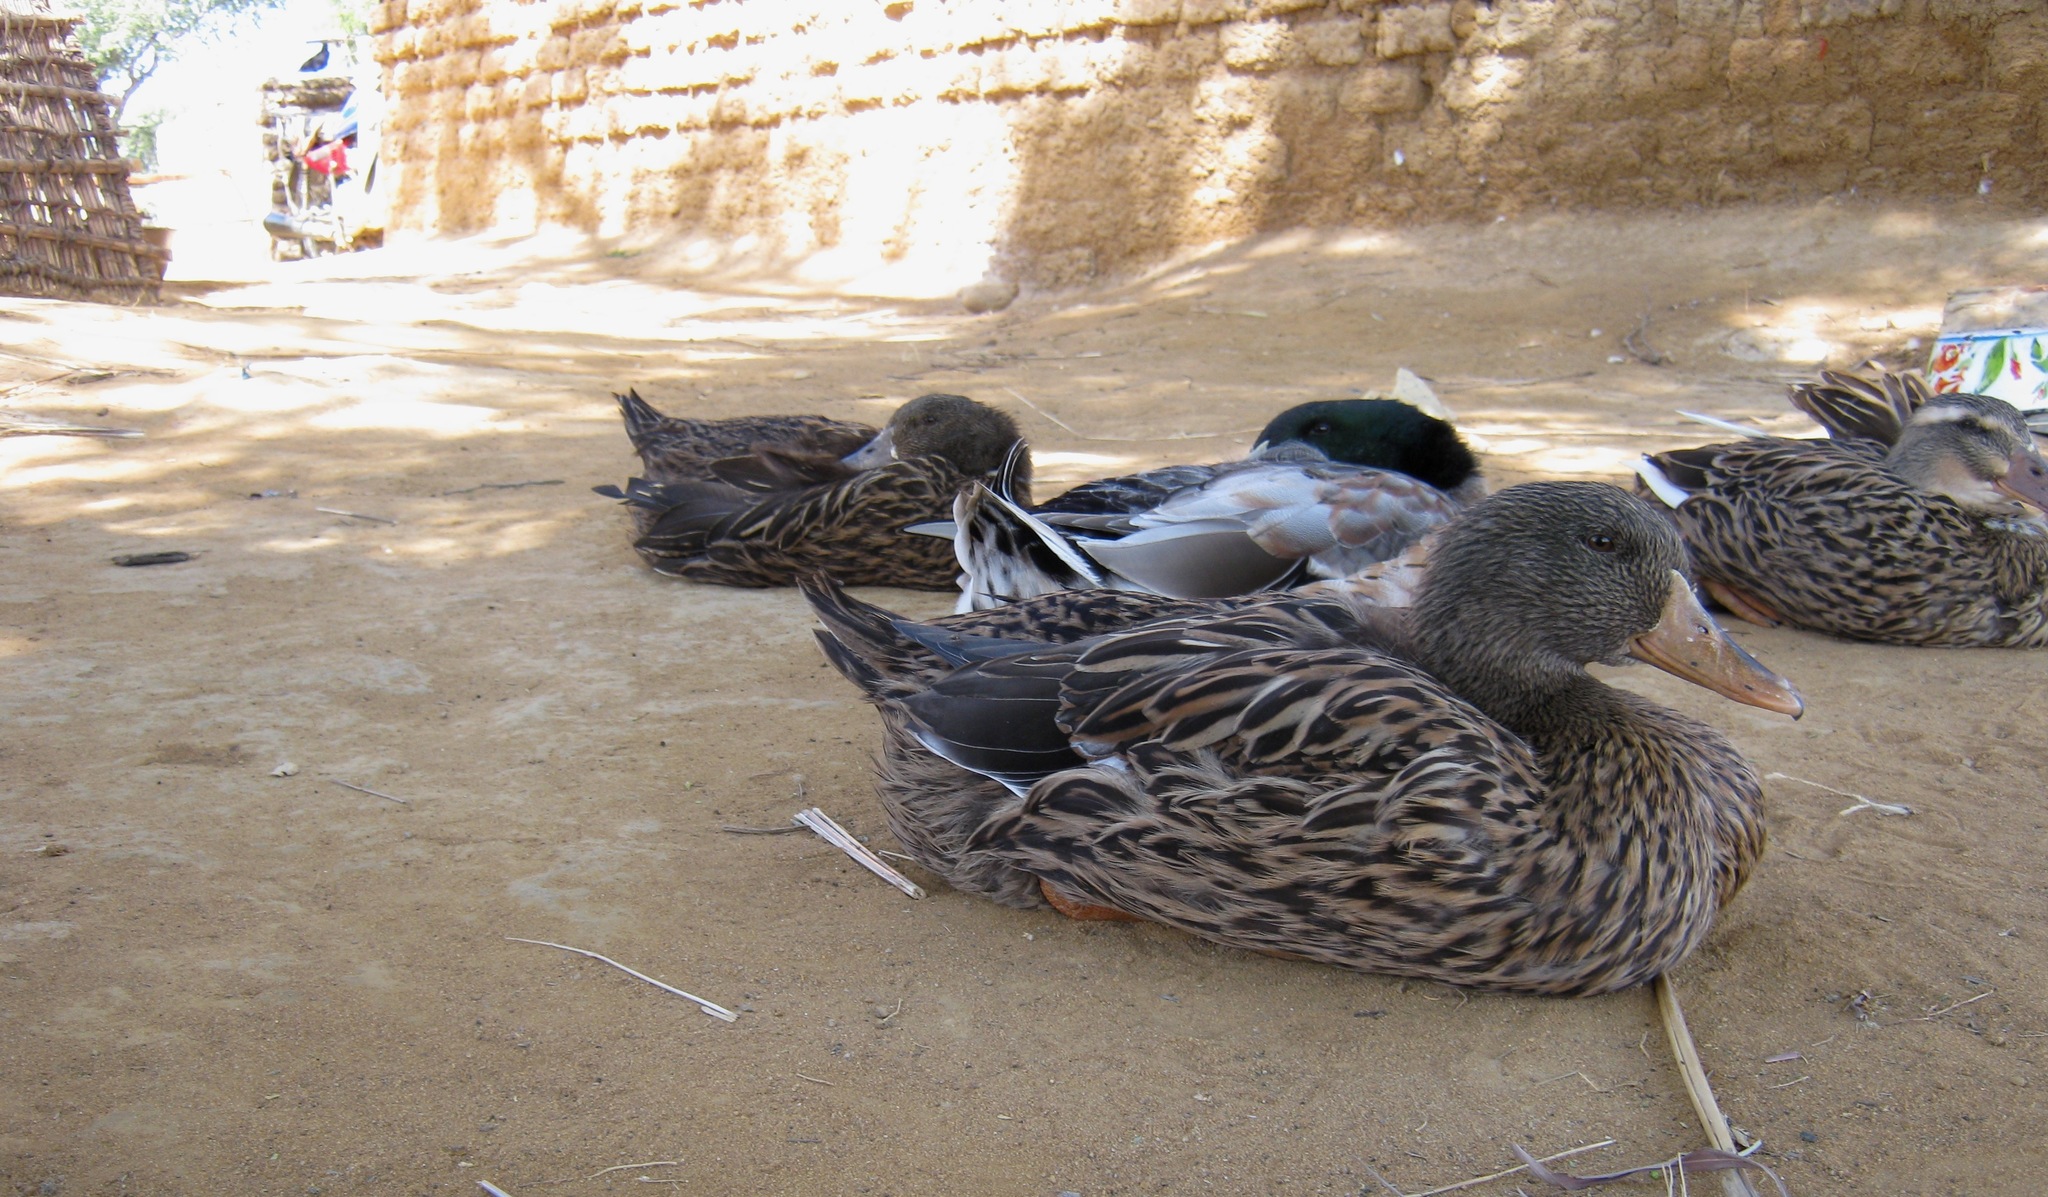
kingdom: Animalia
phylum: Chordata
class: Aves
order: Anseriformes
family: Anatidae
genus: Anas
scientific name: Anas platyrhynchos
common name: Mallard
